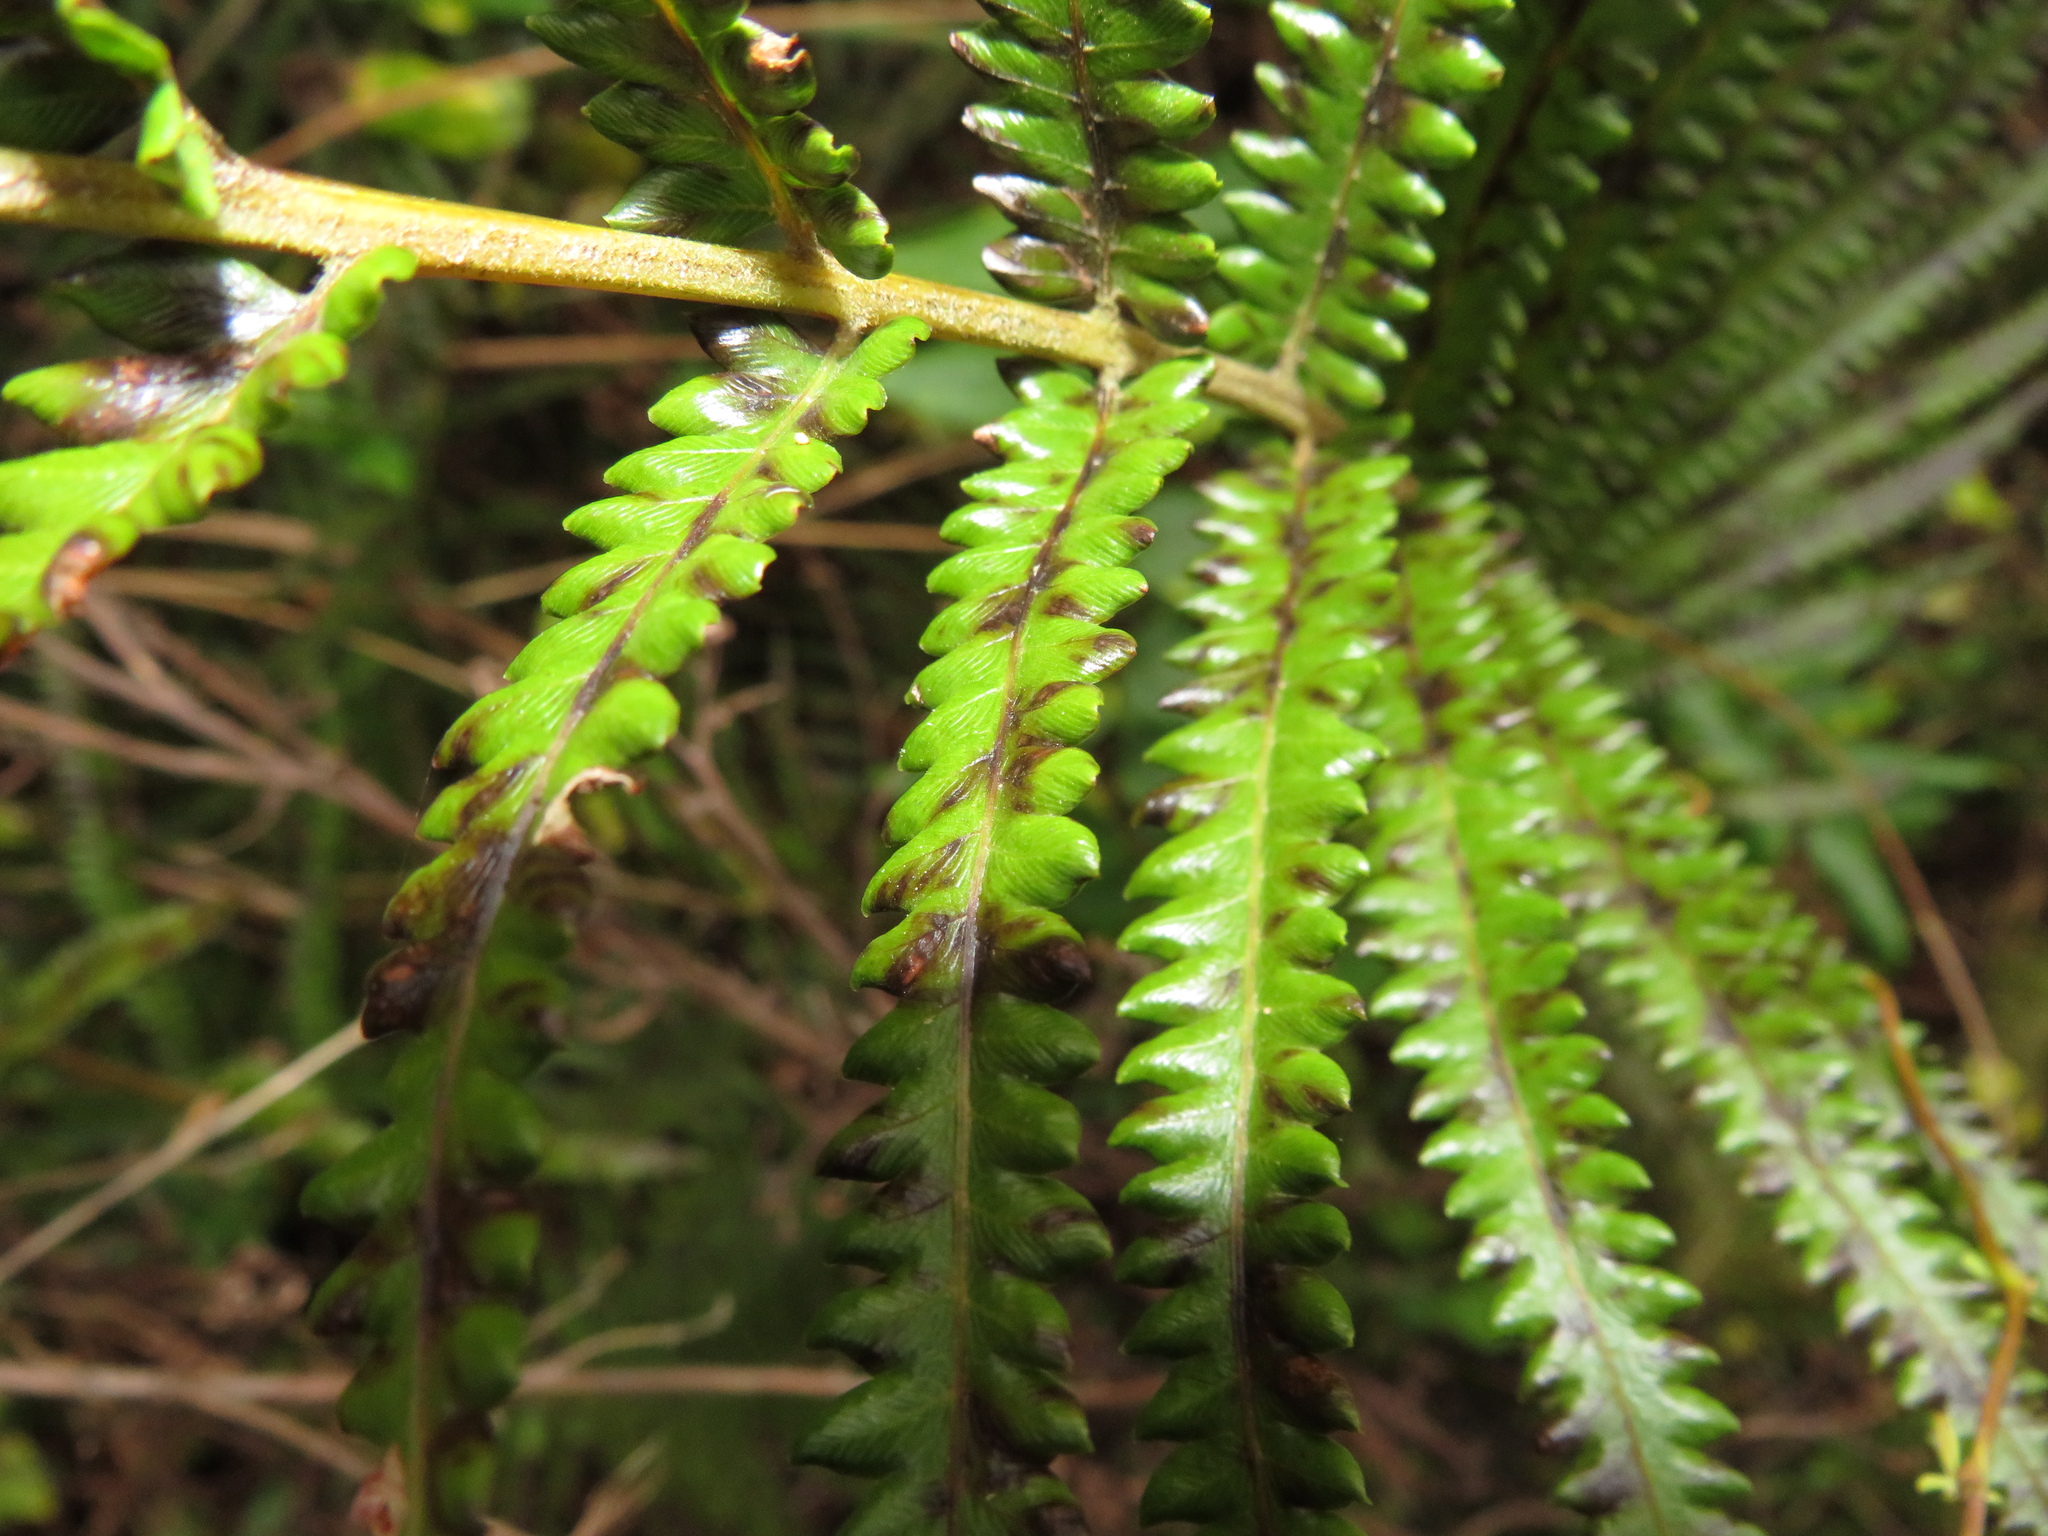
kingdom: Plantae
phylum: Tracheophyta
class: Polypodiopsida
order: Polypodiales
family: Thelypteridaceae
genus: Cyclosorus
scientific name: Cyclosorus interruptus
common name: Neke fern
